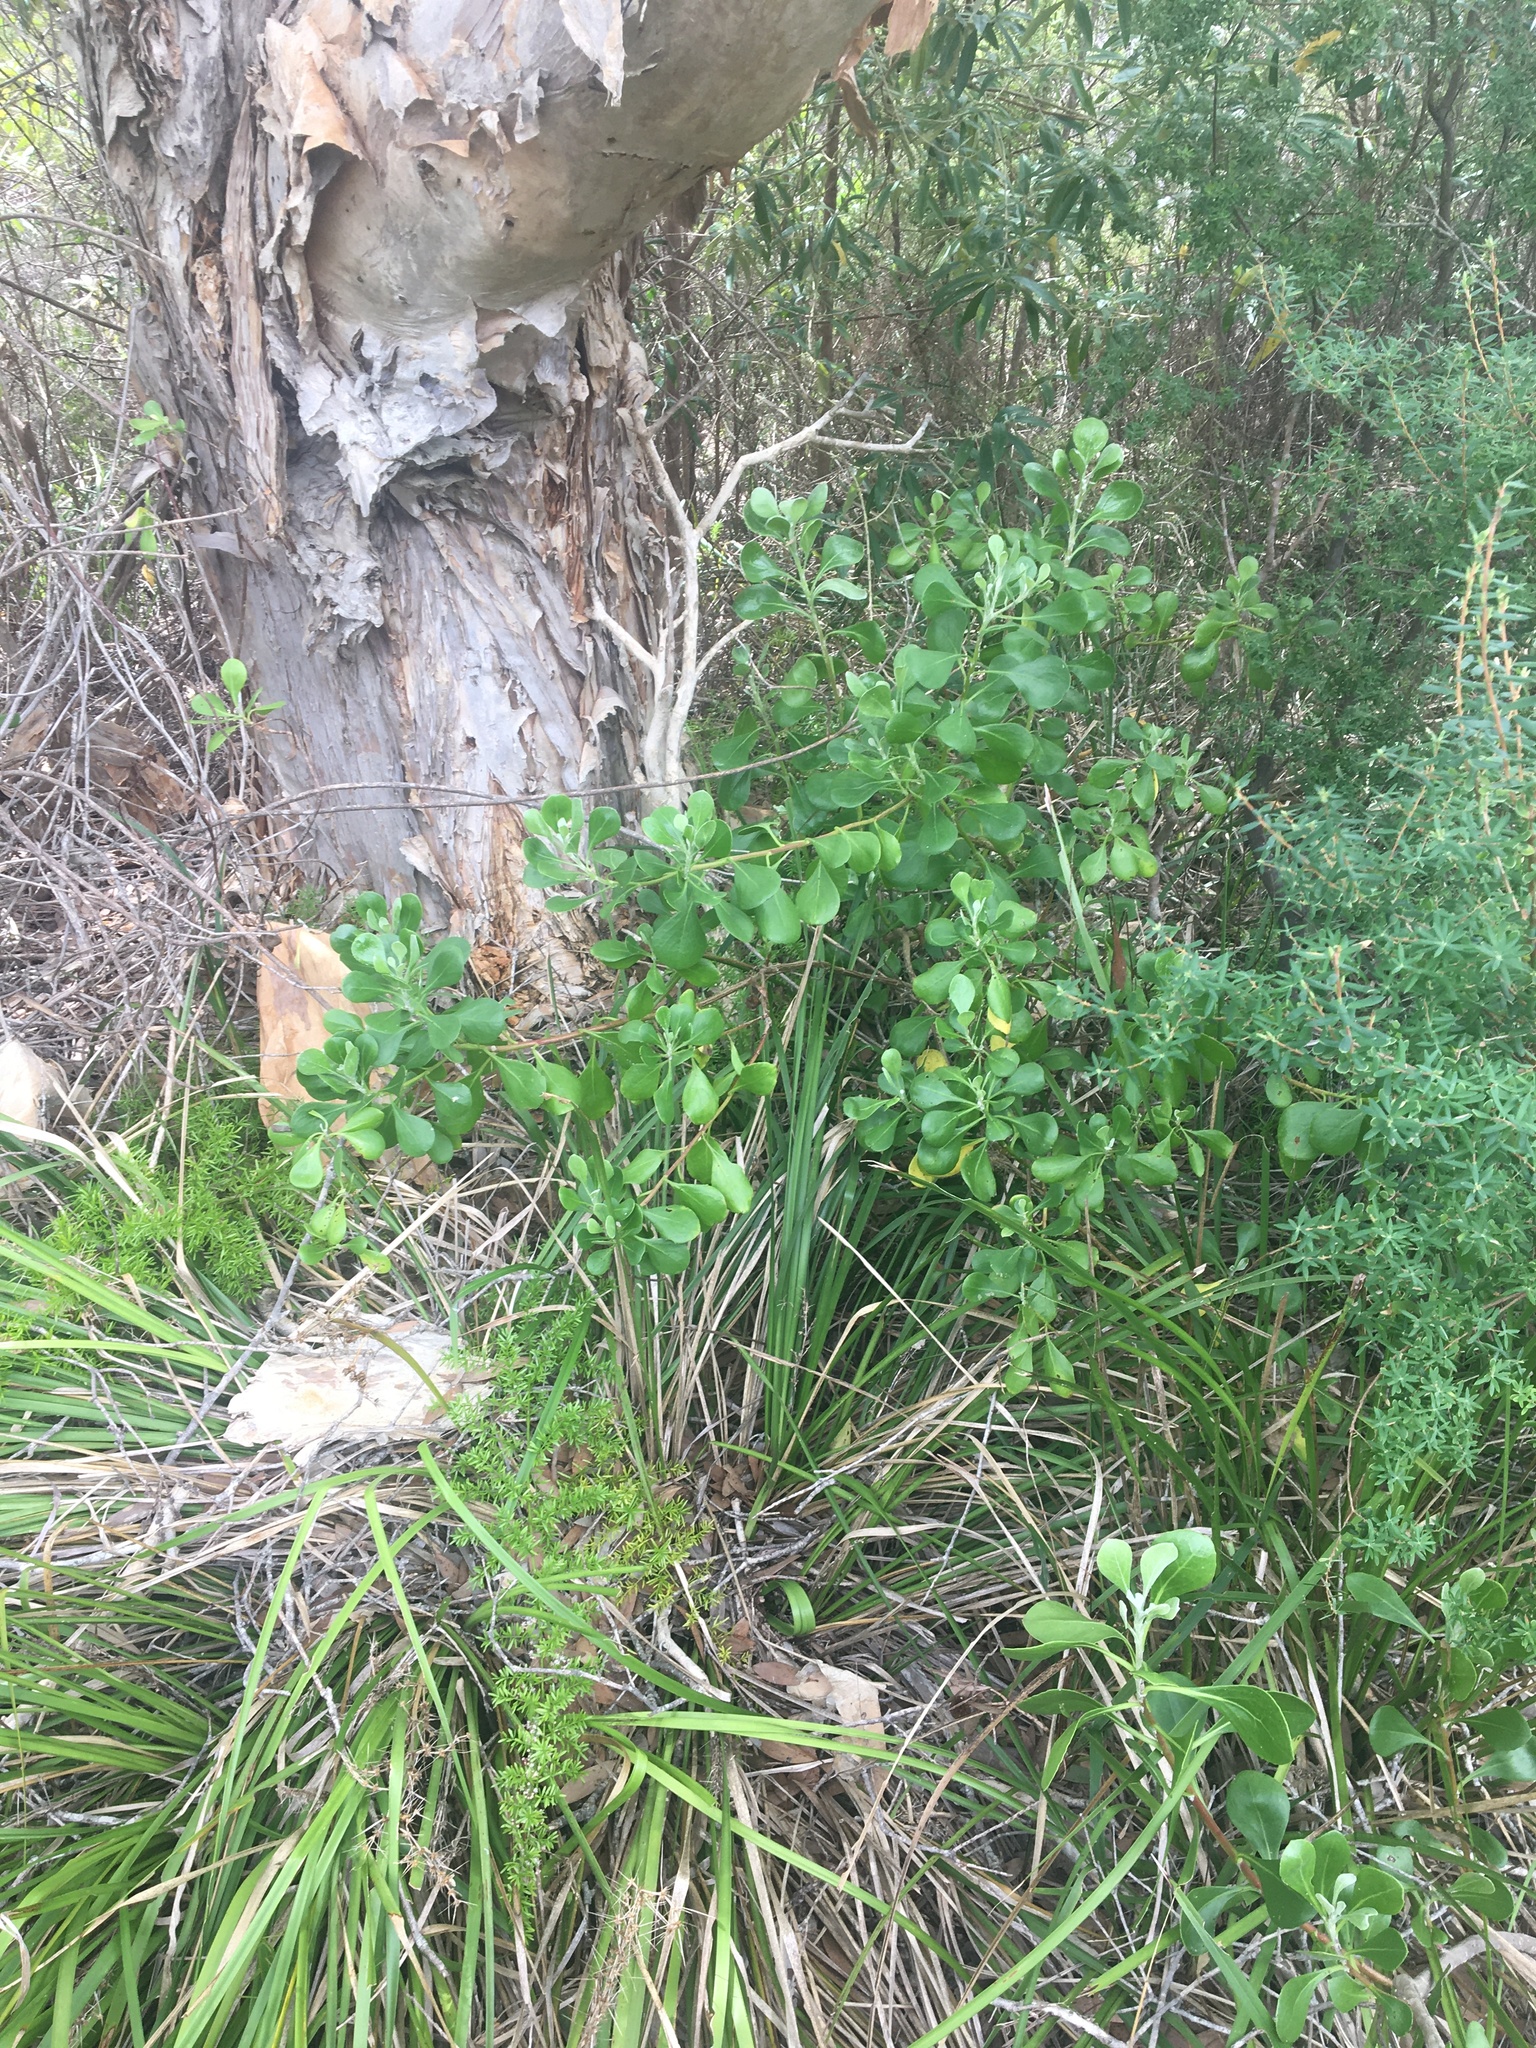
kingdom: Plantae
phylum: Tracheophyta
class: Magnoliopsida
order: Asterales
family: Asteraceae
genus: Osteospermum
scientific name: Osteospermum moniliferum
